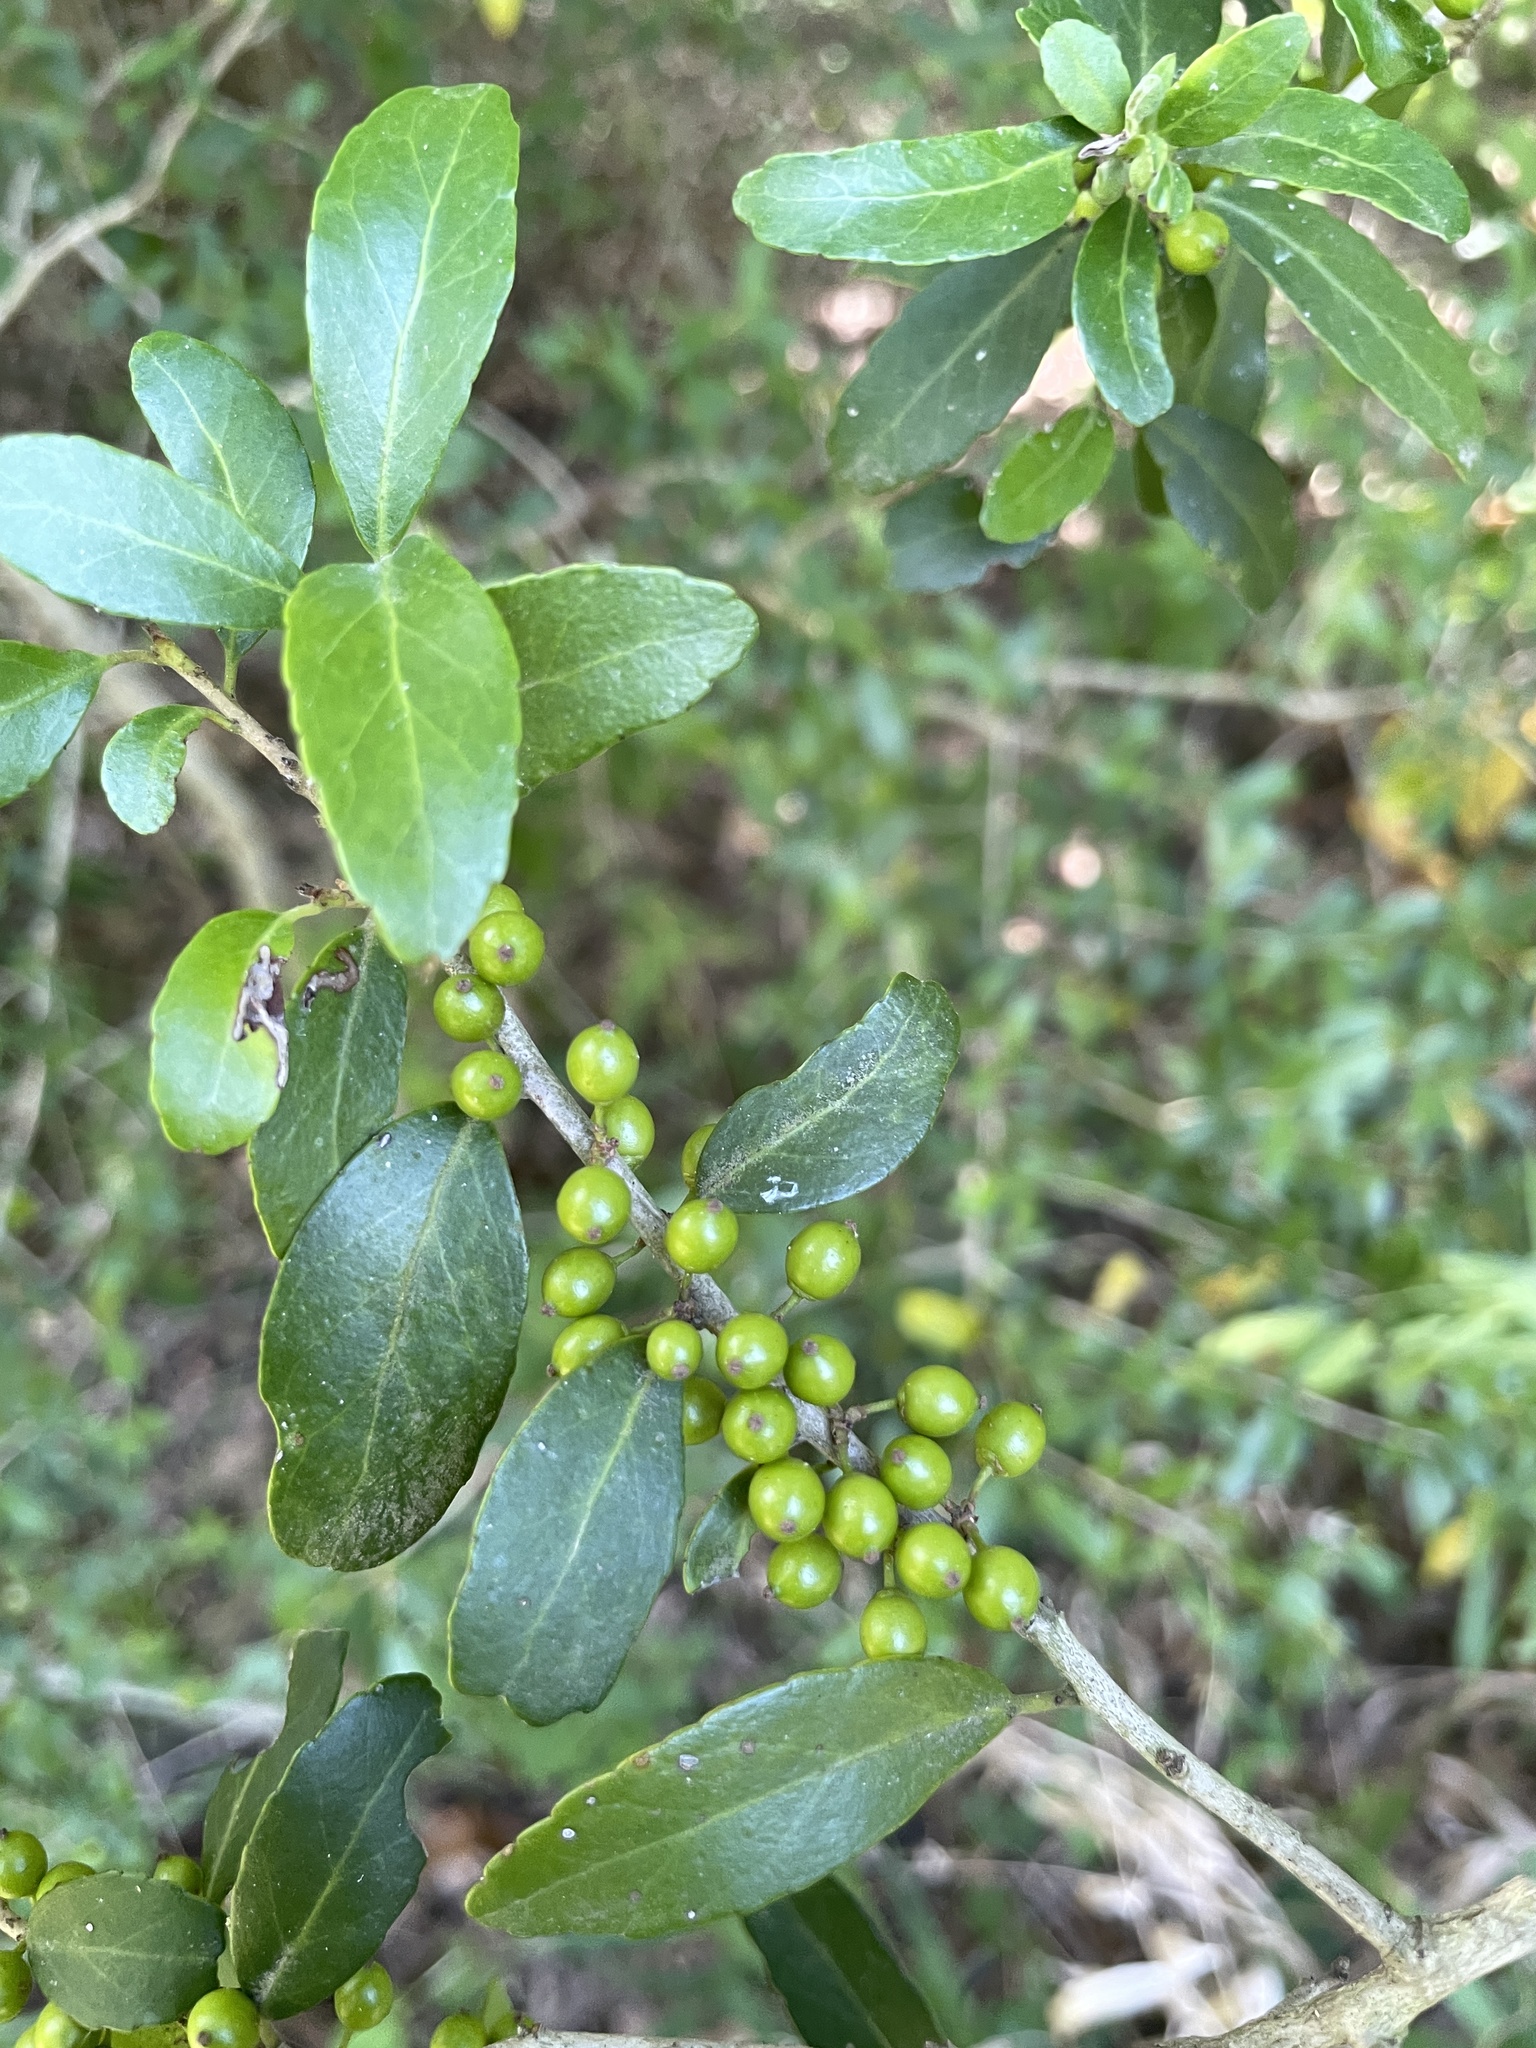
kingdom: Plantae
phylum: Tracheophyta
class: Magnoliopsida
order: Aquifoliales
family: Aquifoliaceae
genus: Ilex
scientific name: Ilex vomitoria
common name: Yaupon holly
